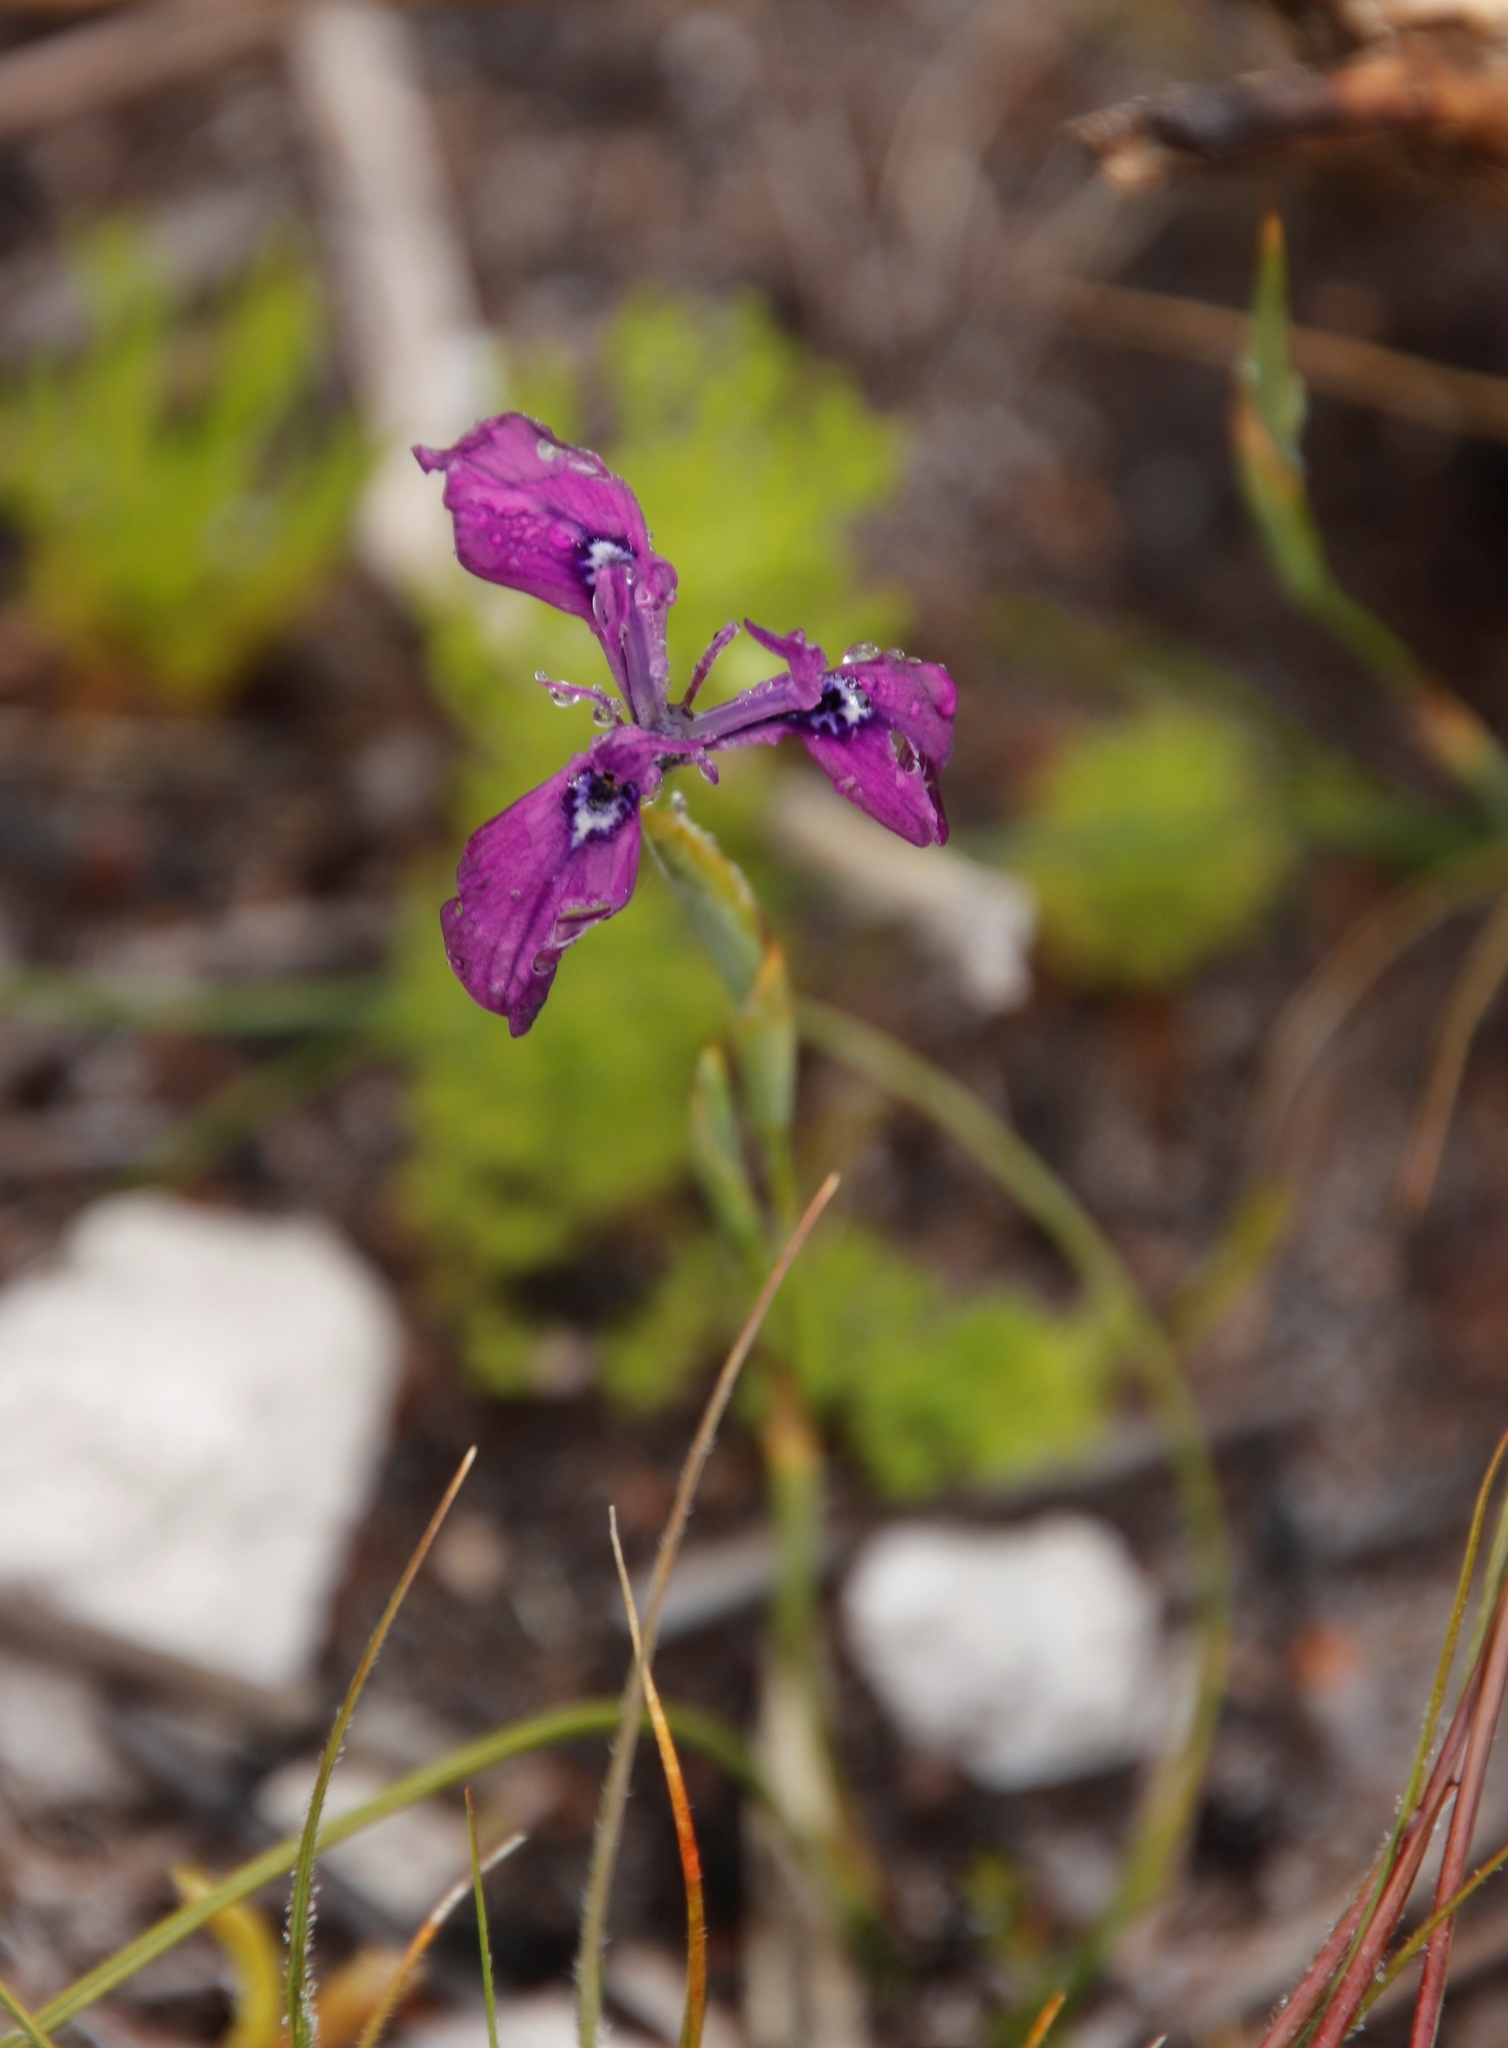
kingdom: Plantae
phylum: Tracheophyta
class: Liliopsida
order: Asparagales
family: Iridaceae
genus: Moraea
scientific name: Moraea tripetala
